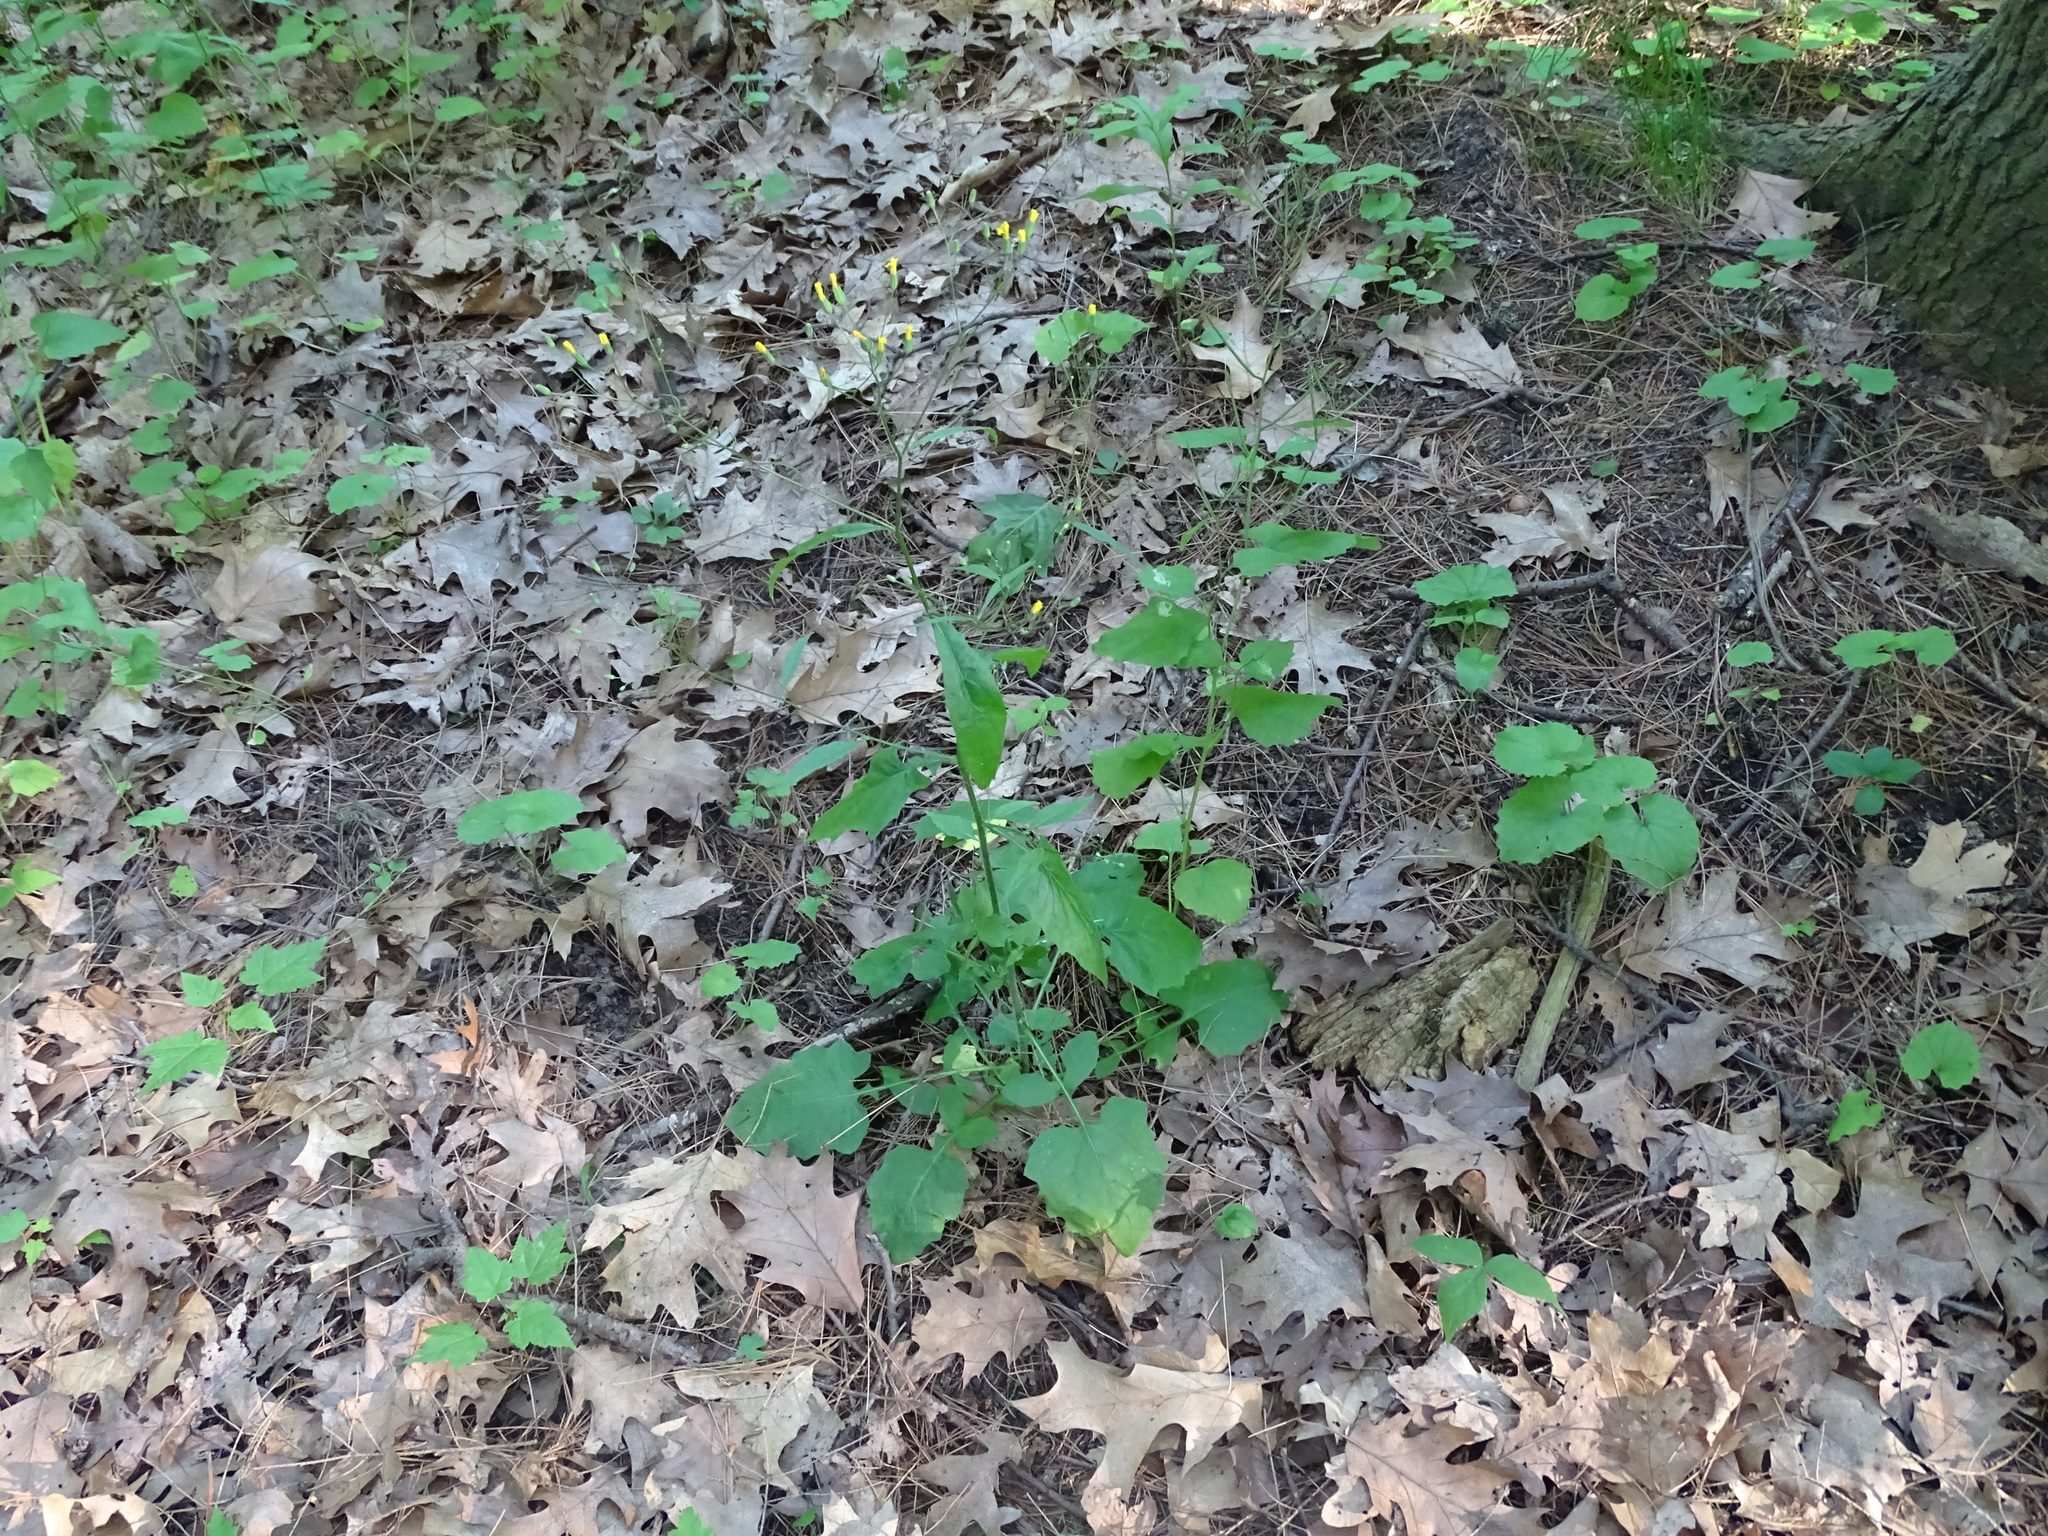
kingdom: Plantae
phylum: Tracheophyta
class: Magnoliopsida
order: Asterales
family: Asteraceae
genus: Lapsana
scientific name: Lapsana communis
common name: Nipplewort
